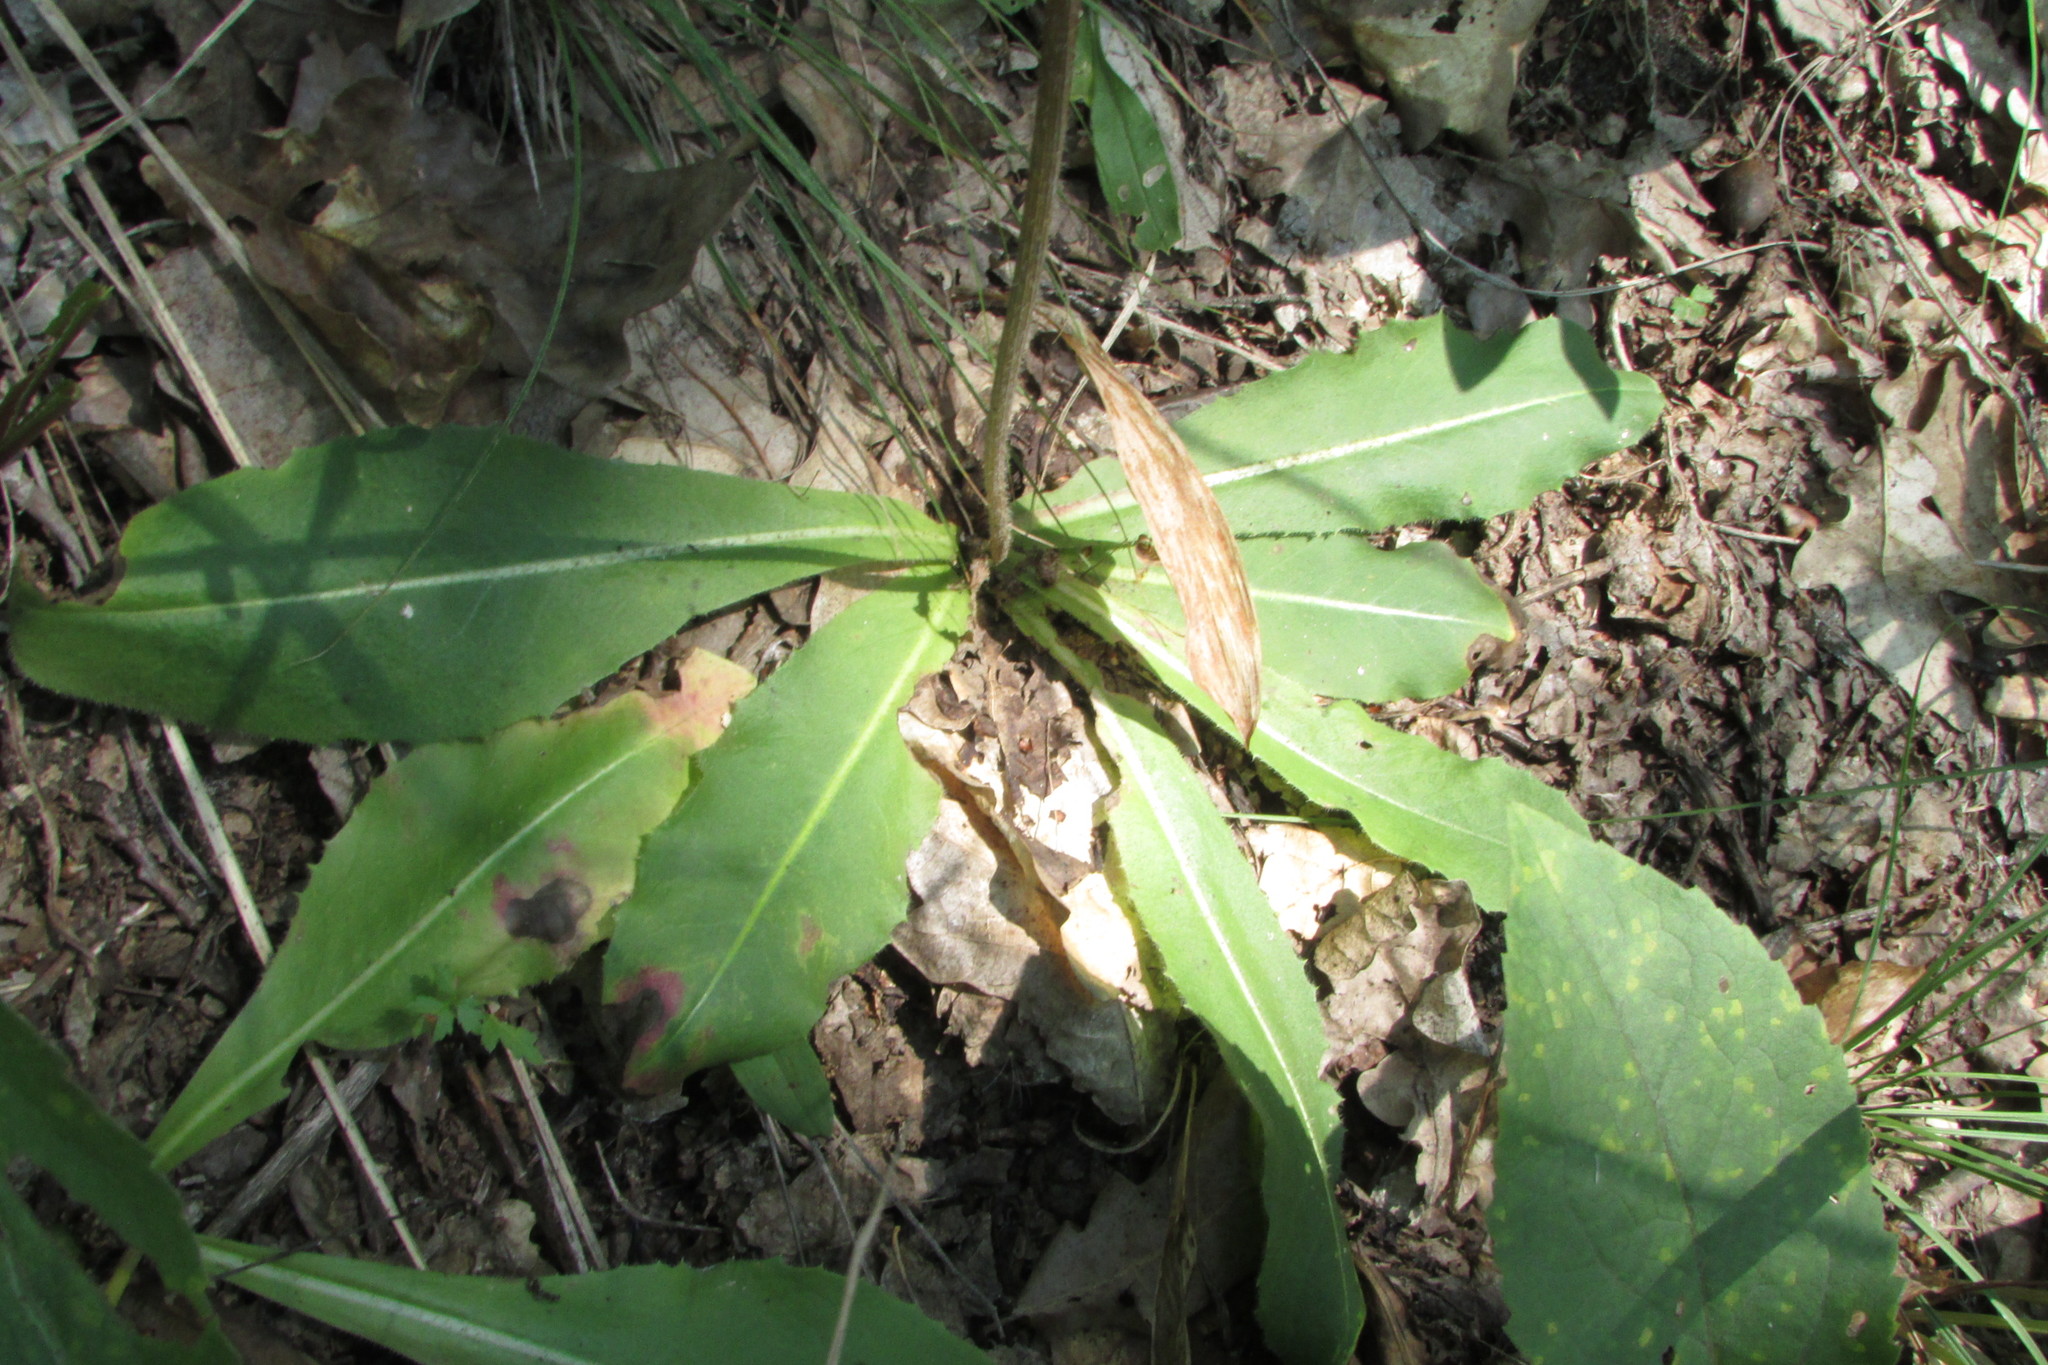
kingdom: Plantae
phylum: Tracheophyta
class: Magnoliopsida
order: Asterales
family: Asteraceae
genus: Trommsdorffia
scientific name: Trommsdorffia maculata
